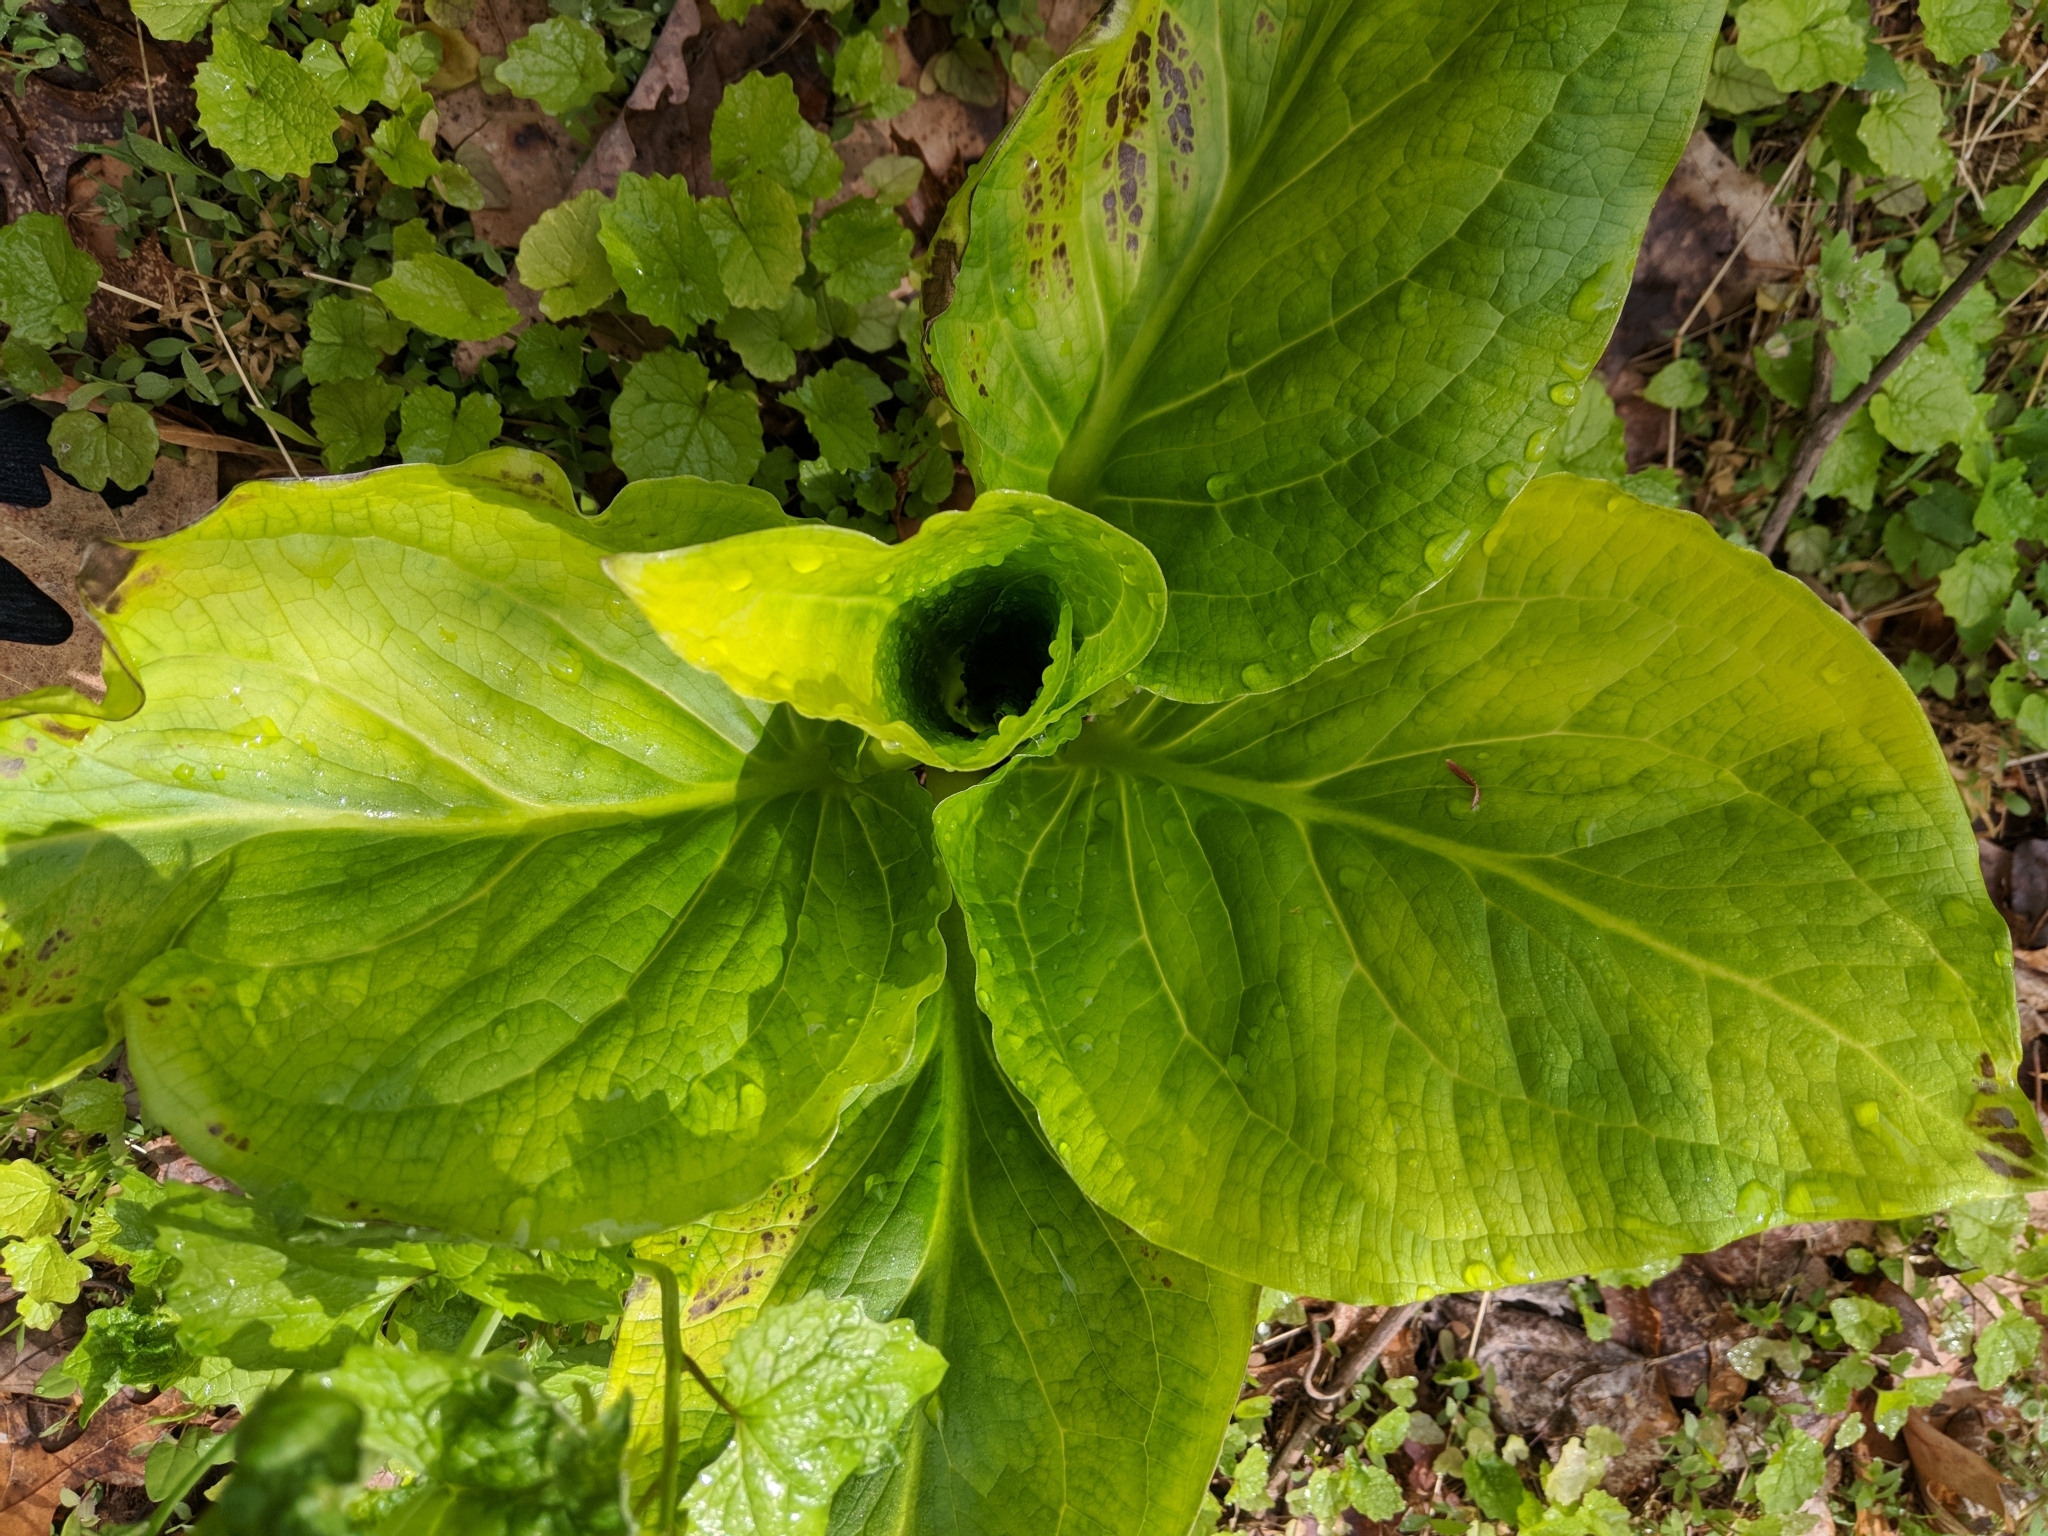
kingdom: Plantae
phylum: Tracheophyta
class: Liliopsida
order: Alismatales
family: Araceae
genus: Symplocarpus
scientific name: Symplocarpus foetidus
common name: Eastern skunk cabbage
